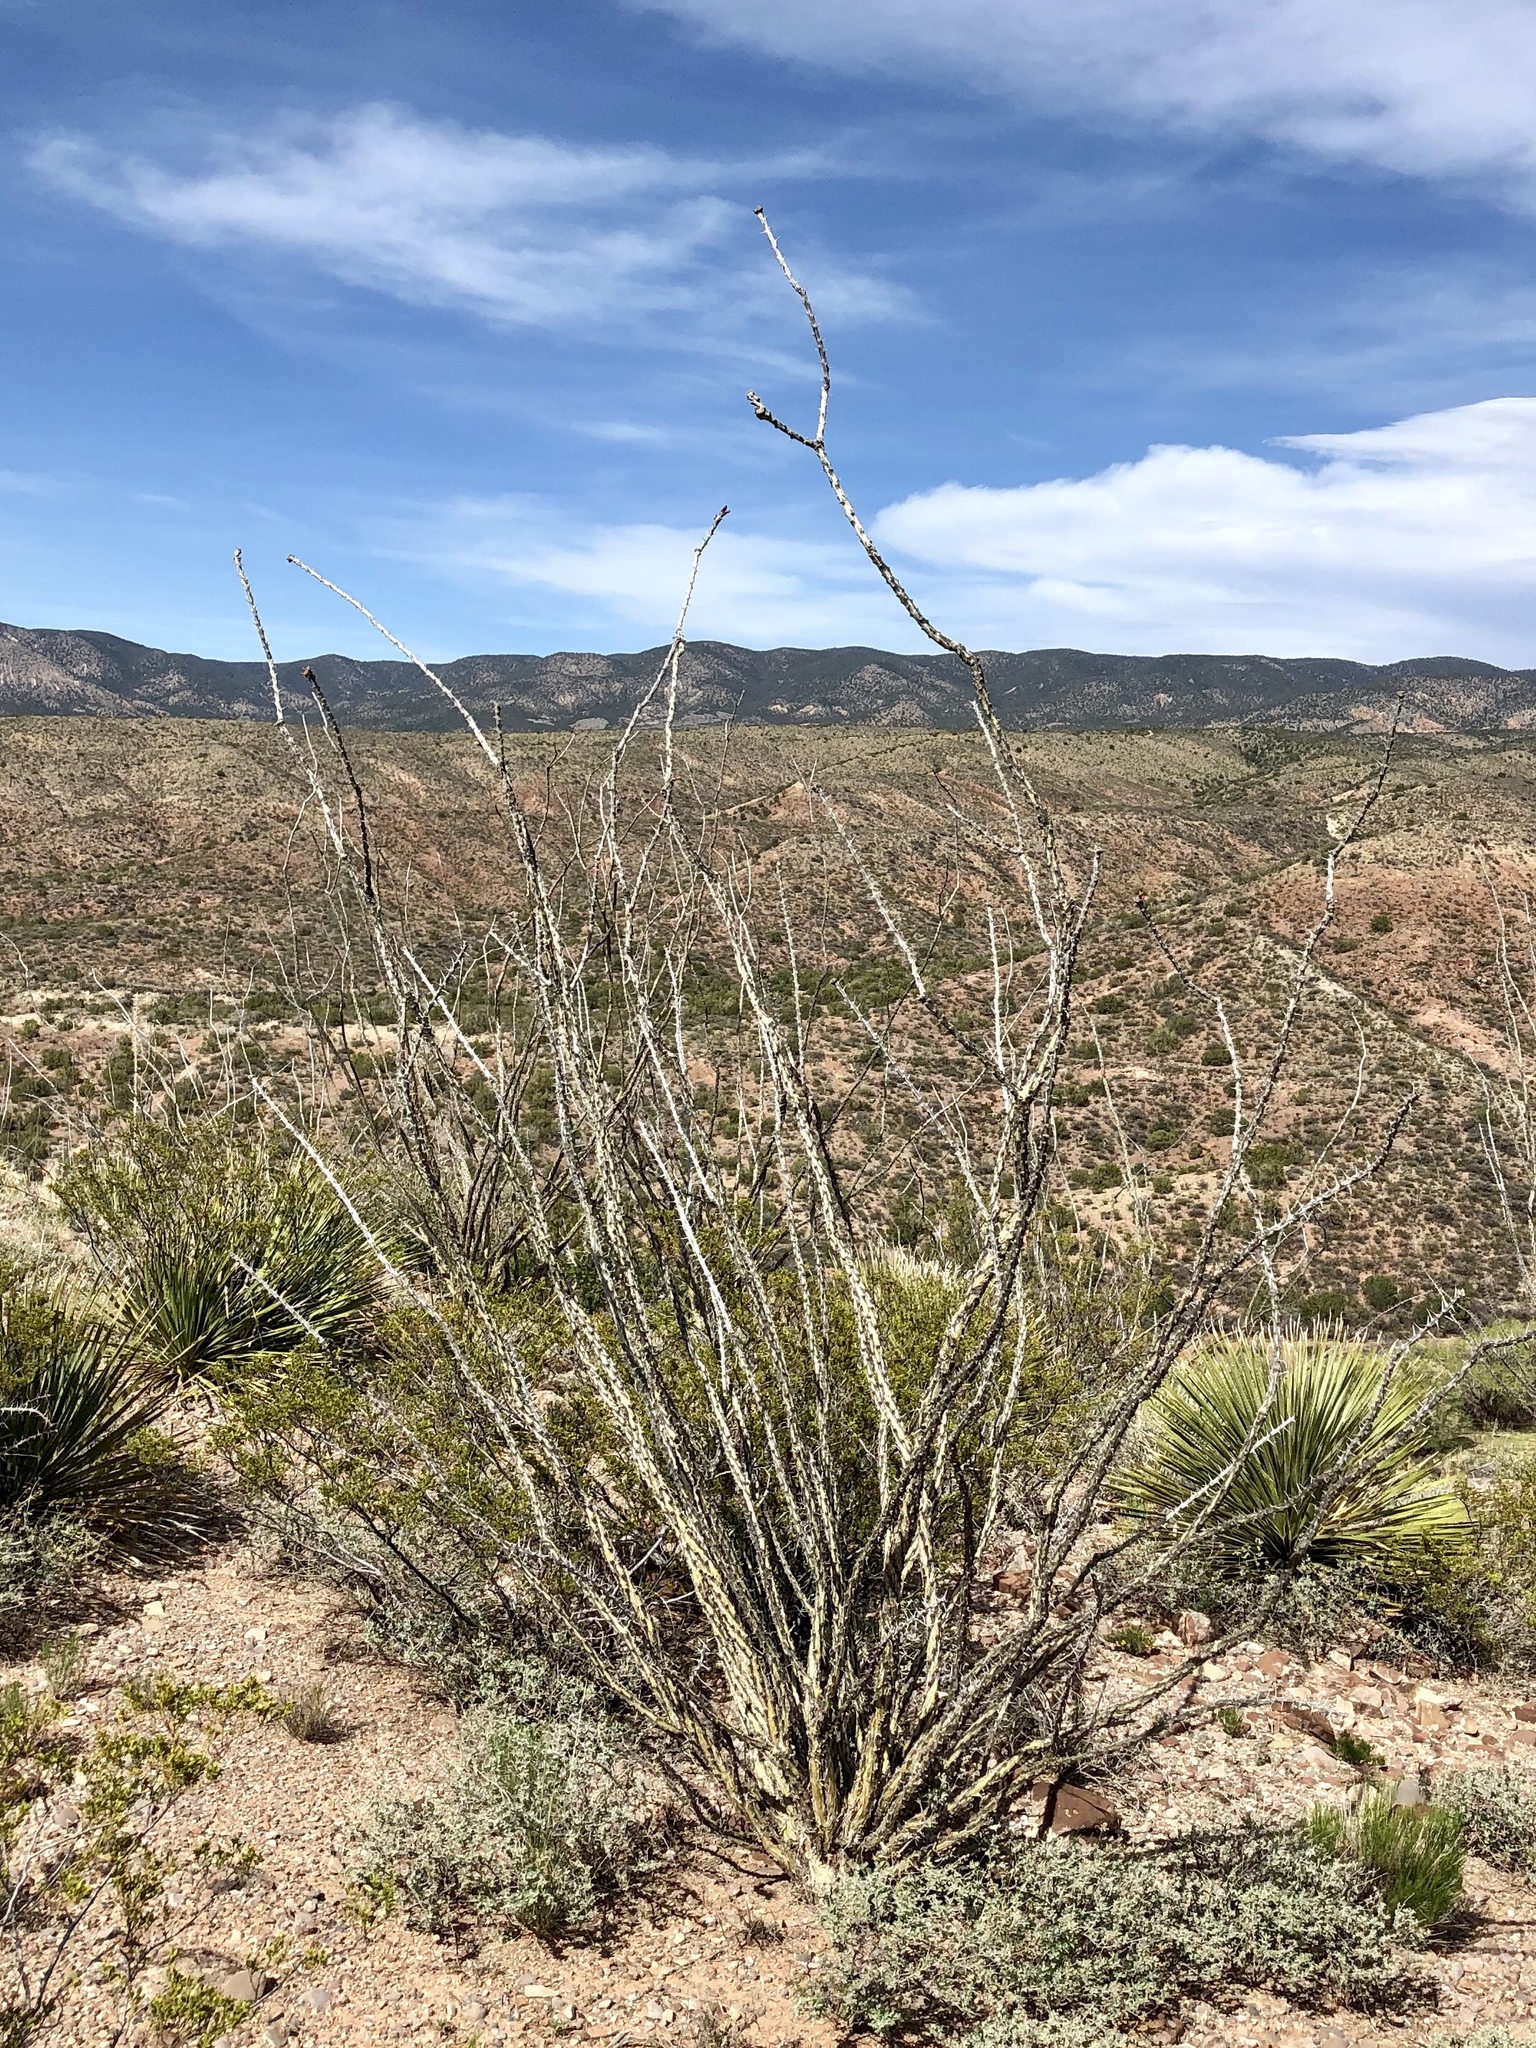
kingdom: Plantae
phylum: Tracheophyta
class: Magnoliopsida
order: Ericales
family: Fouquieriaceae
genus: Fouquieria
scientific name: Fouquieria splendens
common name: Vine-cactus
